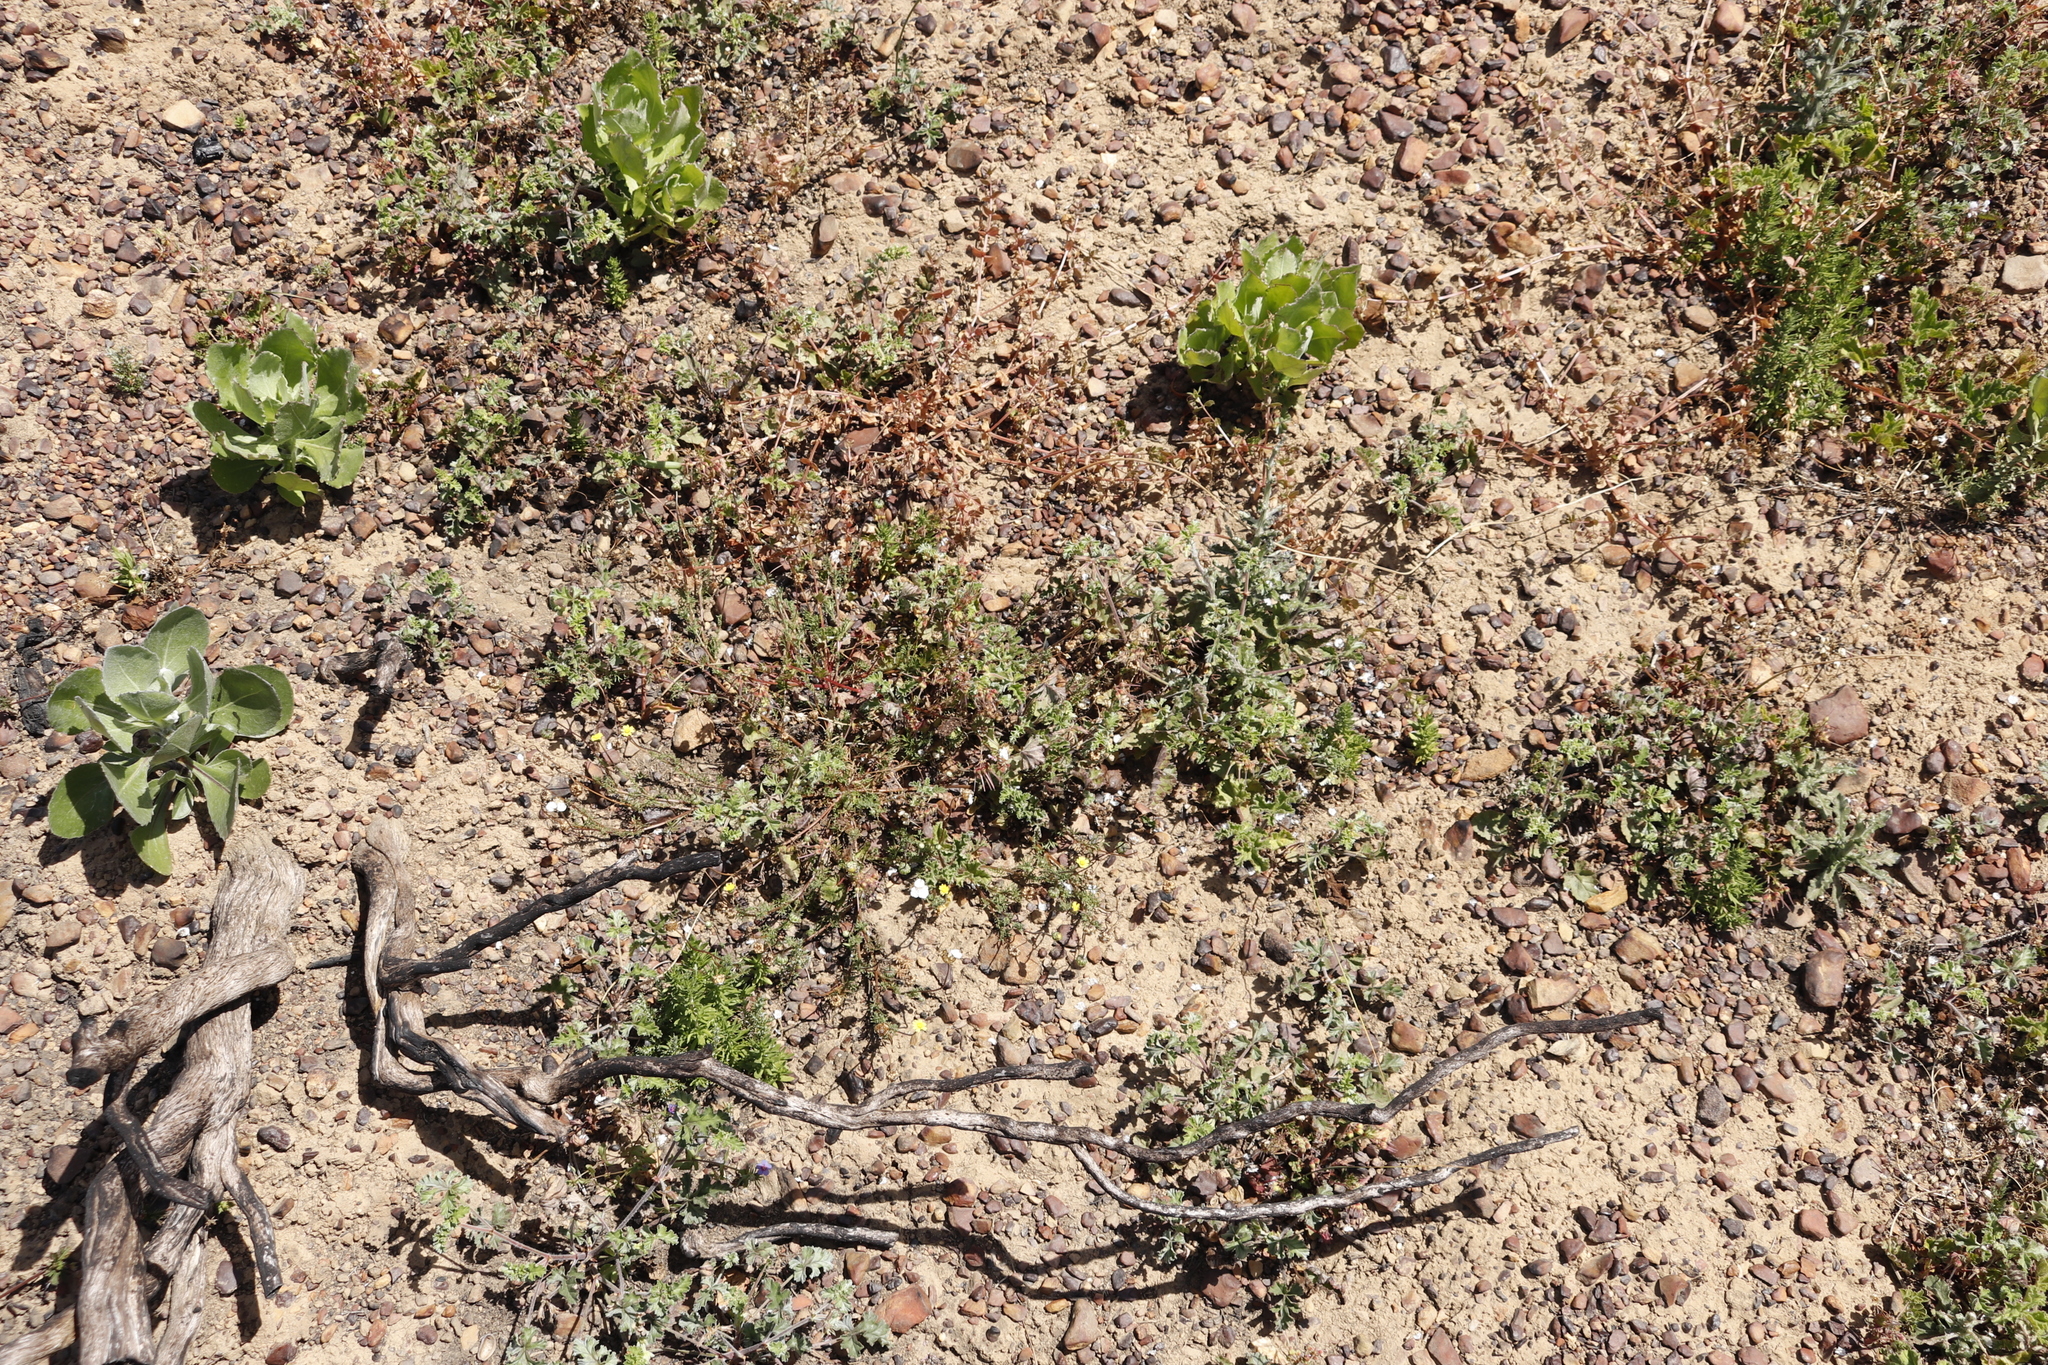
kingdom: Plantae
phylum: Tracheophyta
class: Magnoliopsida
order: Geraniales
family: Geraniaceae
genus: Pelargonium
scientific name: Pelargonium candicans
